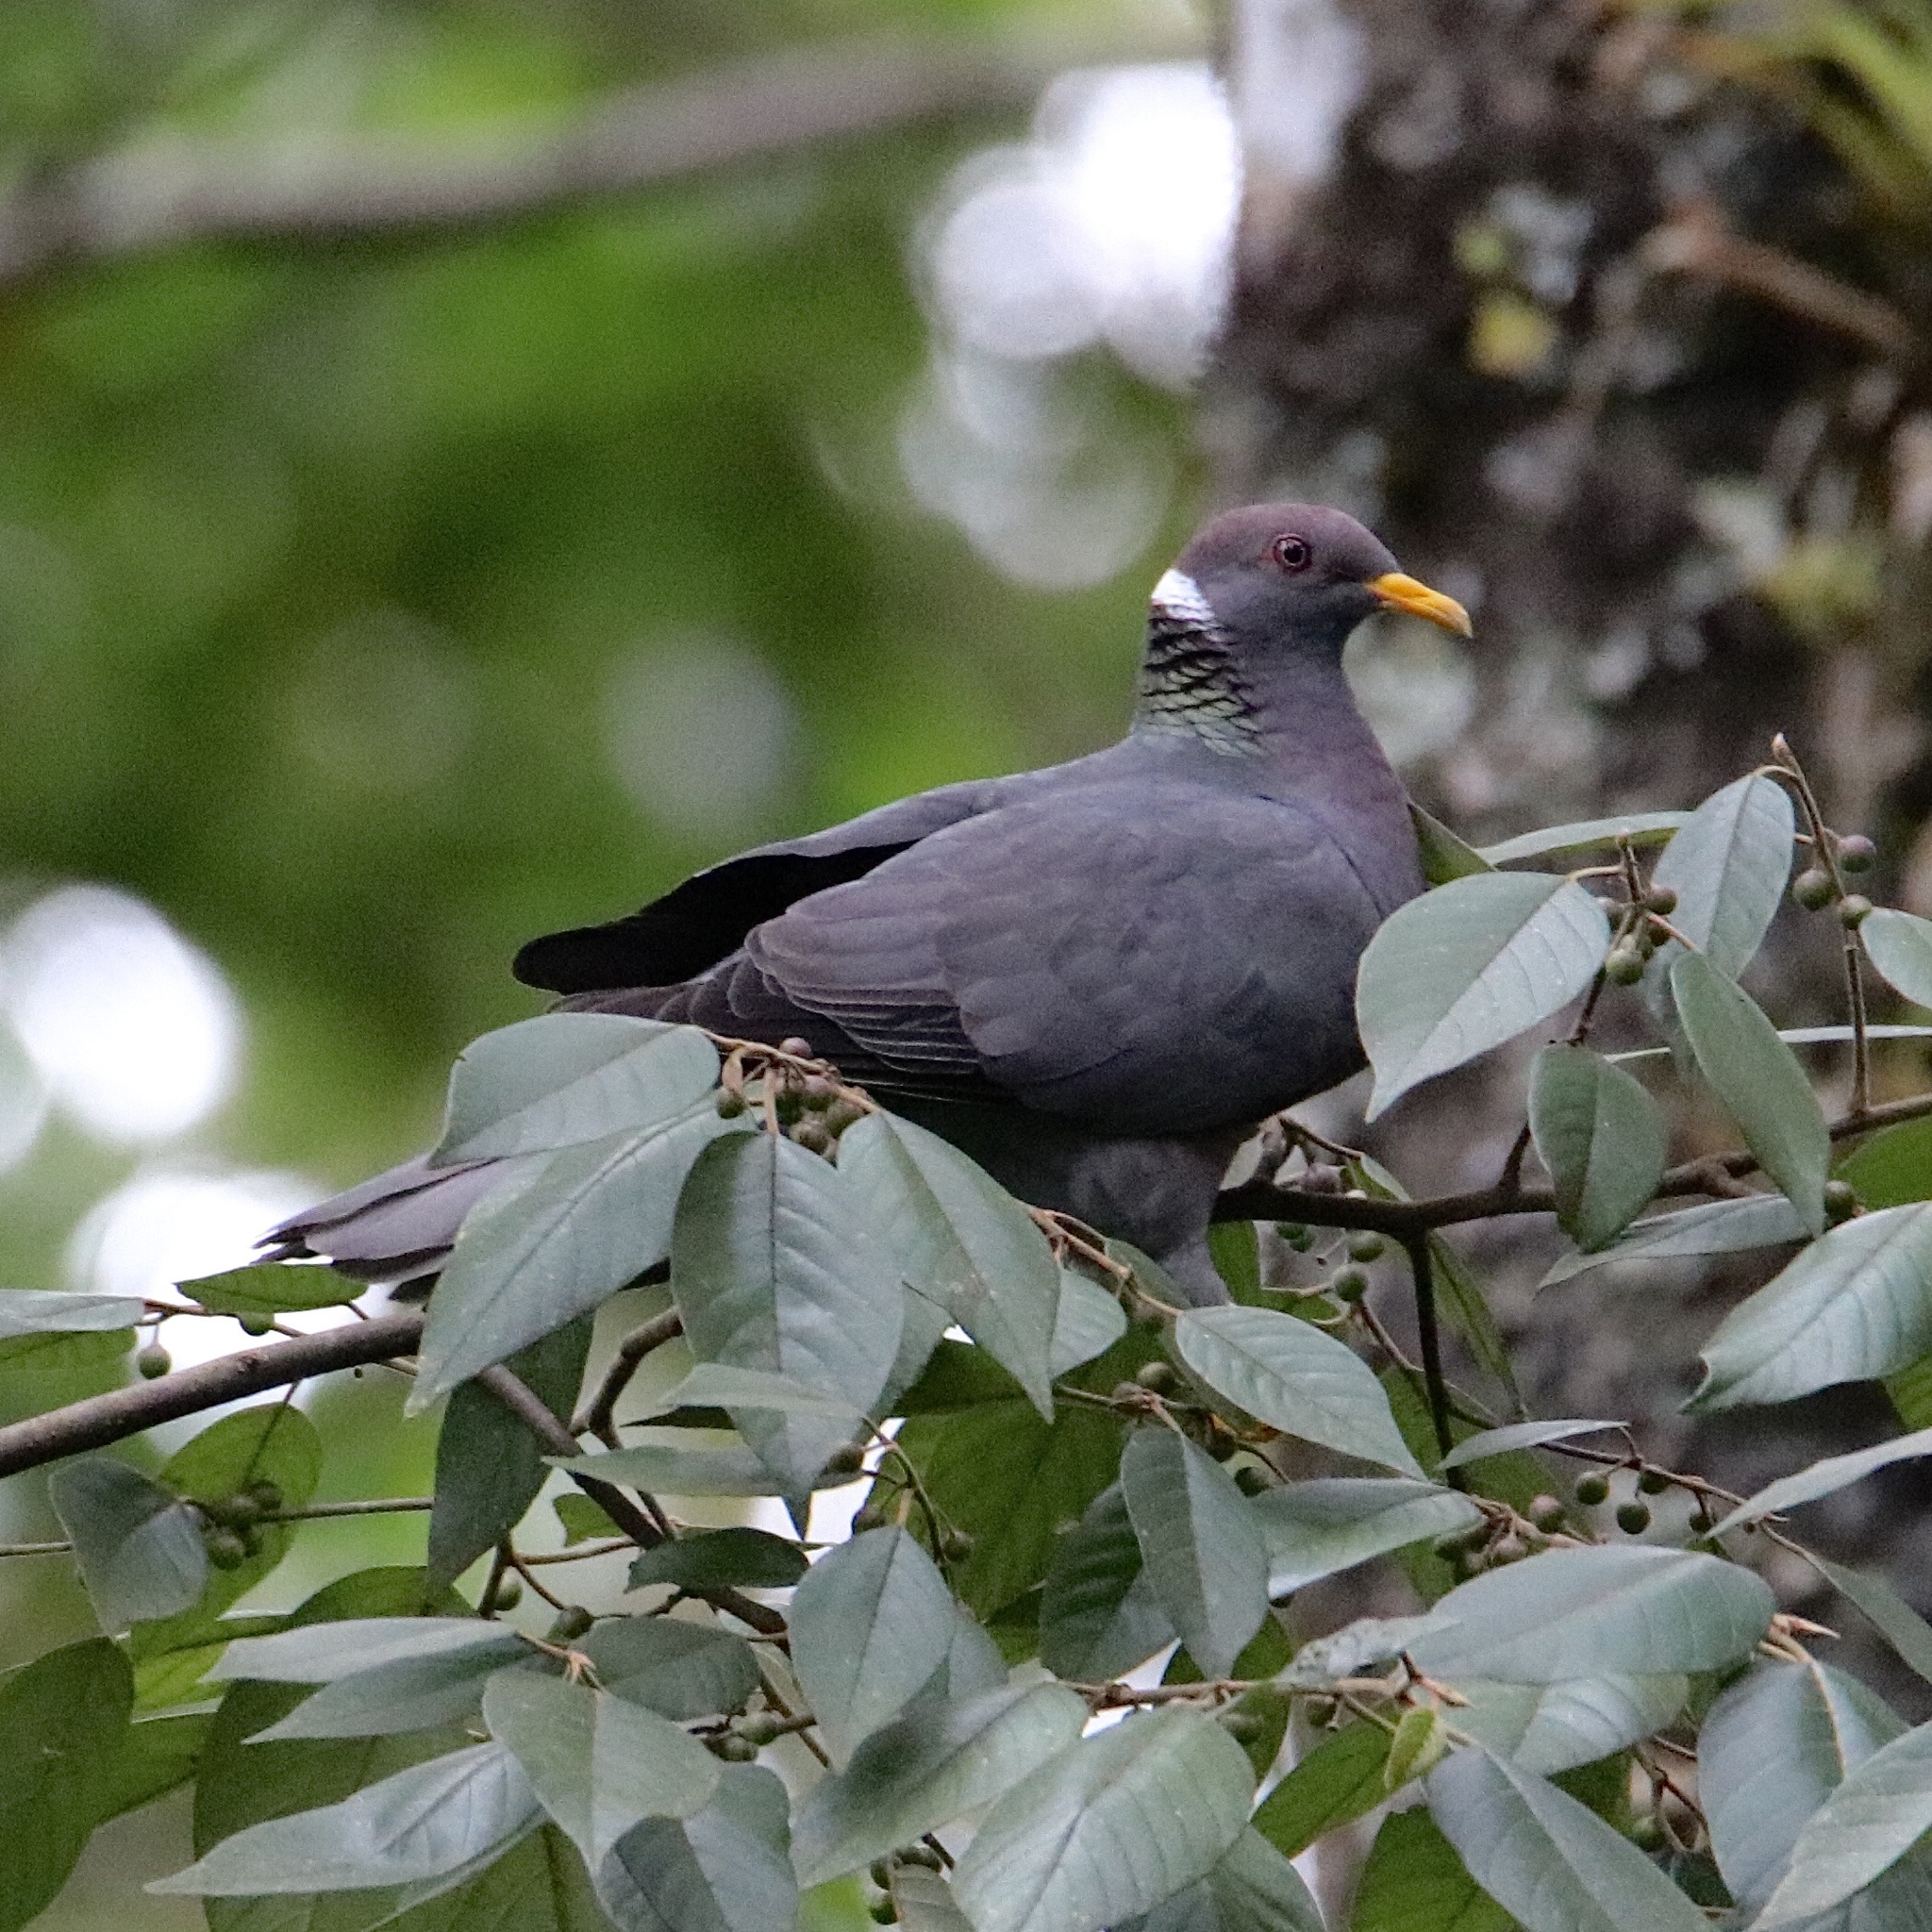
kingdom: Animalia
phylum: Chordata
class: Aves
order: Columbiformes
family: Columbidae
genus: Patagioenas
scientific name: Patagioenas fasciata
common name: Band-tailed pigeon
